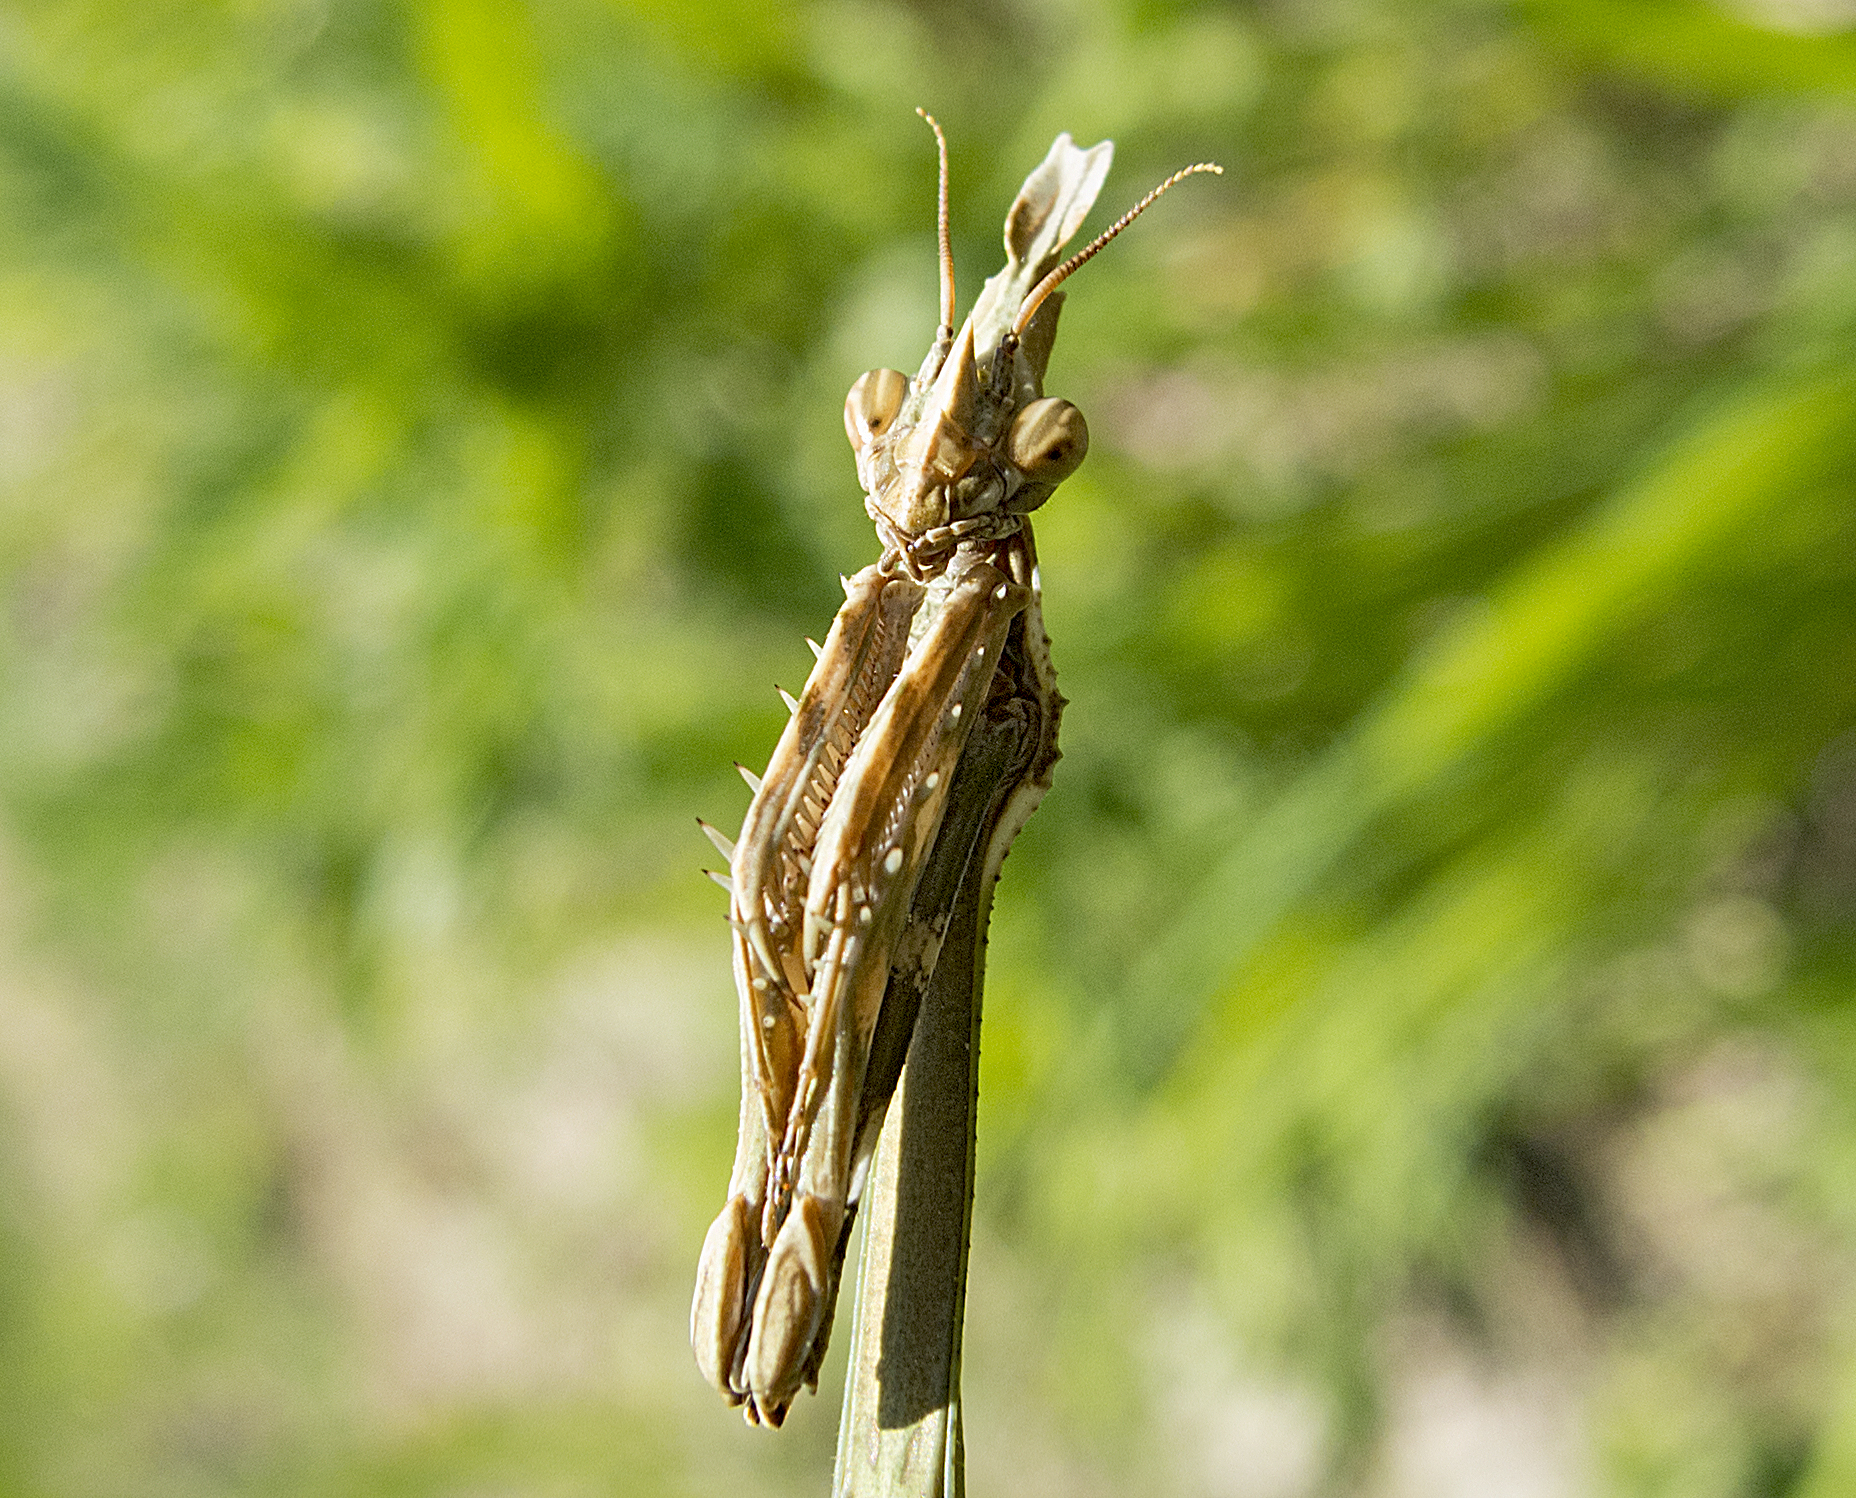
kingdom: Animalia
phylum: Arthropoda
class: Insecta
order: Mantodea
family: Empusidae
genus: Empusa
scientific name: Empusa fasciata
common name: Devil's mare
